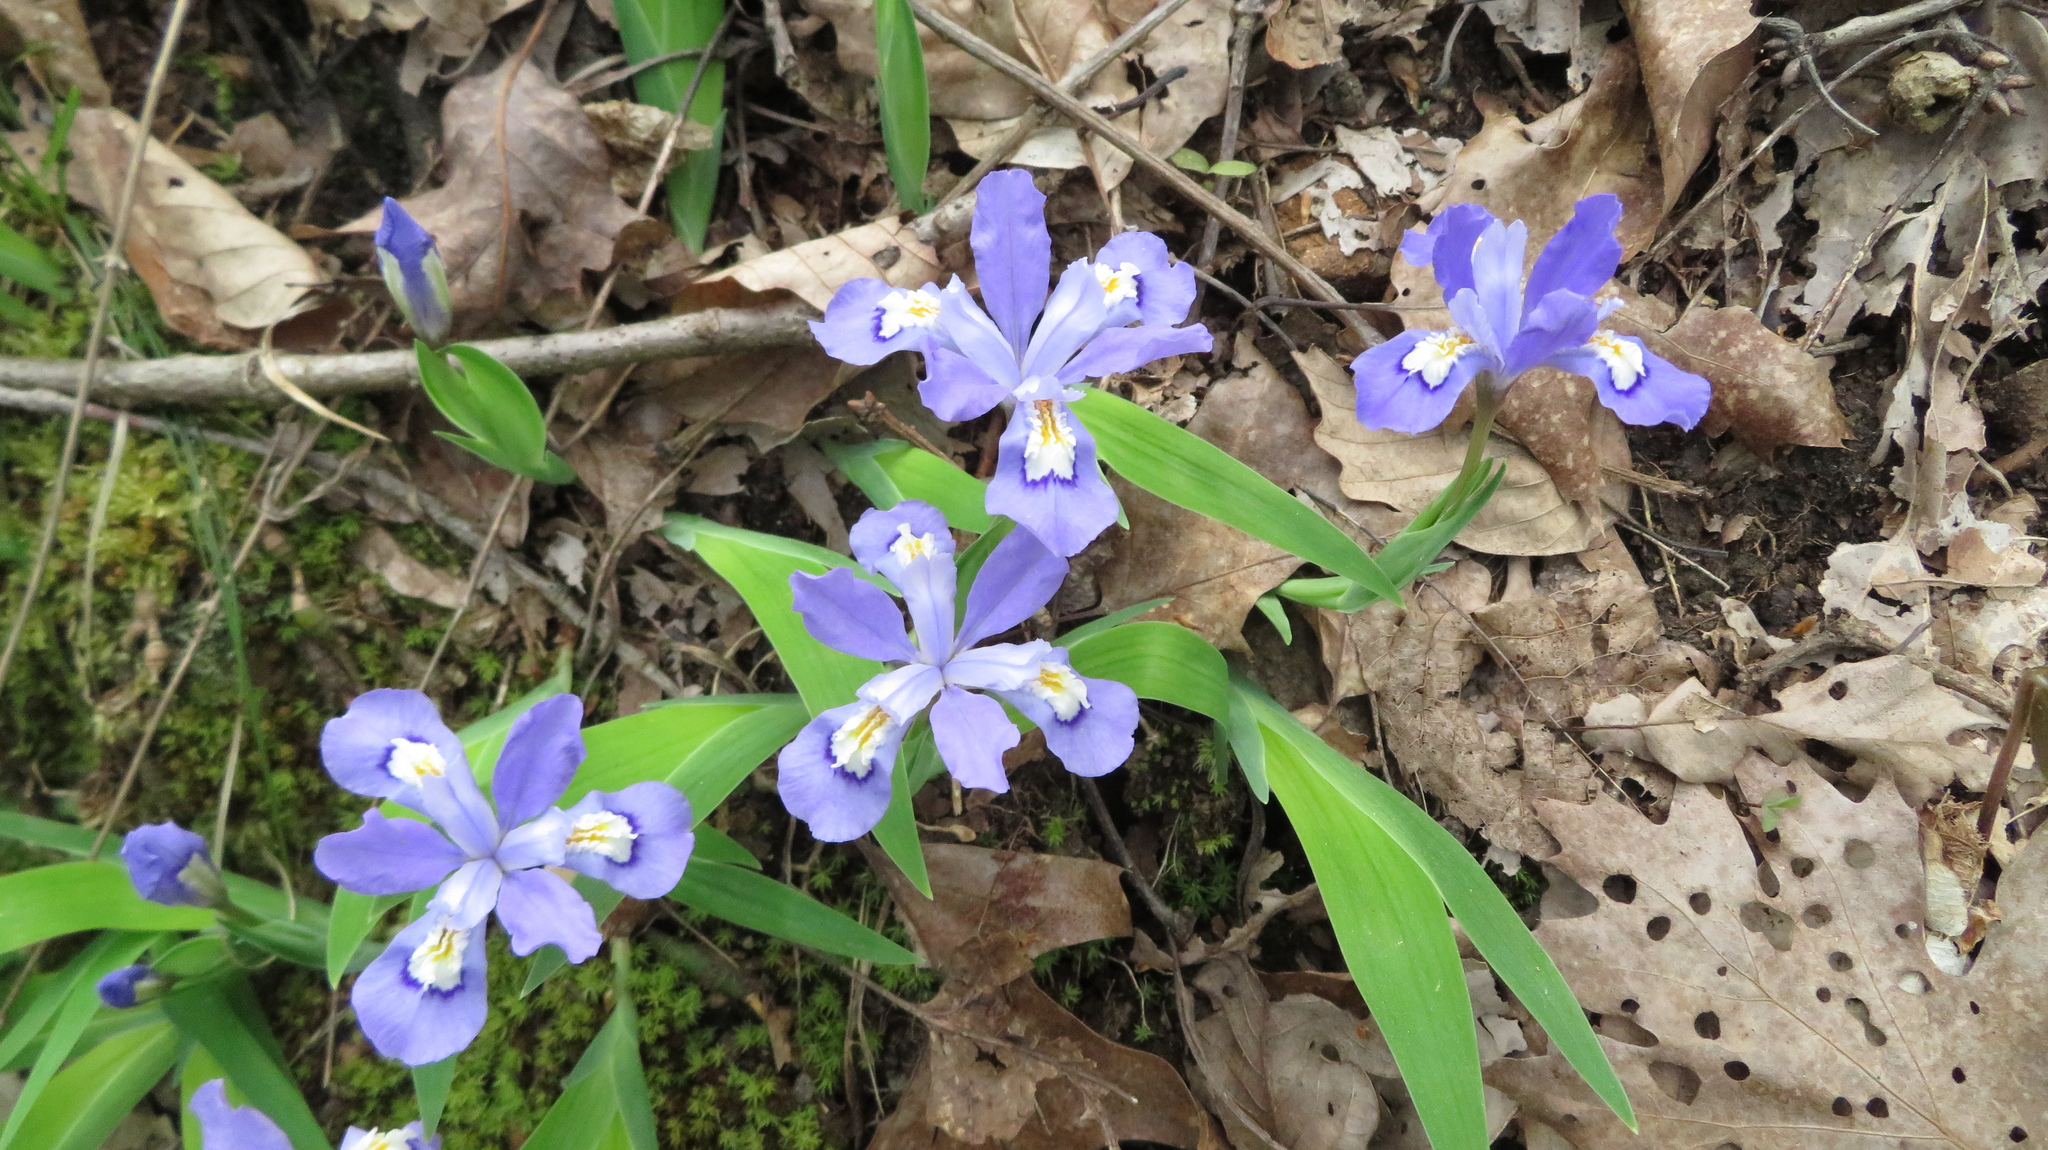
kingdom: Plantae
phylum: Tracheophyta
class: Liliopsida
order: Asparagales
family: Iridaceae
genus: Iris
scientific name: Iris cristata
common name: Crested iris
